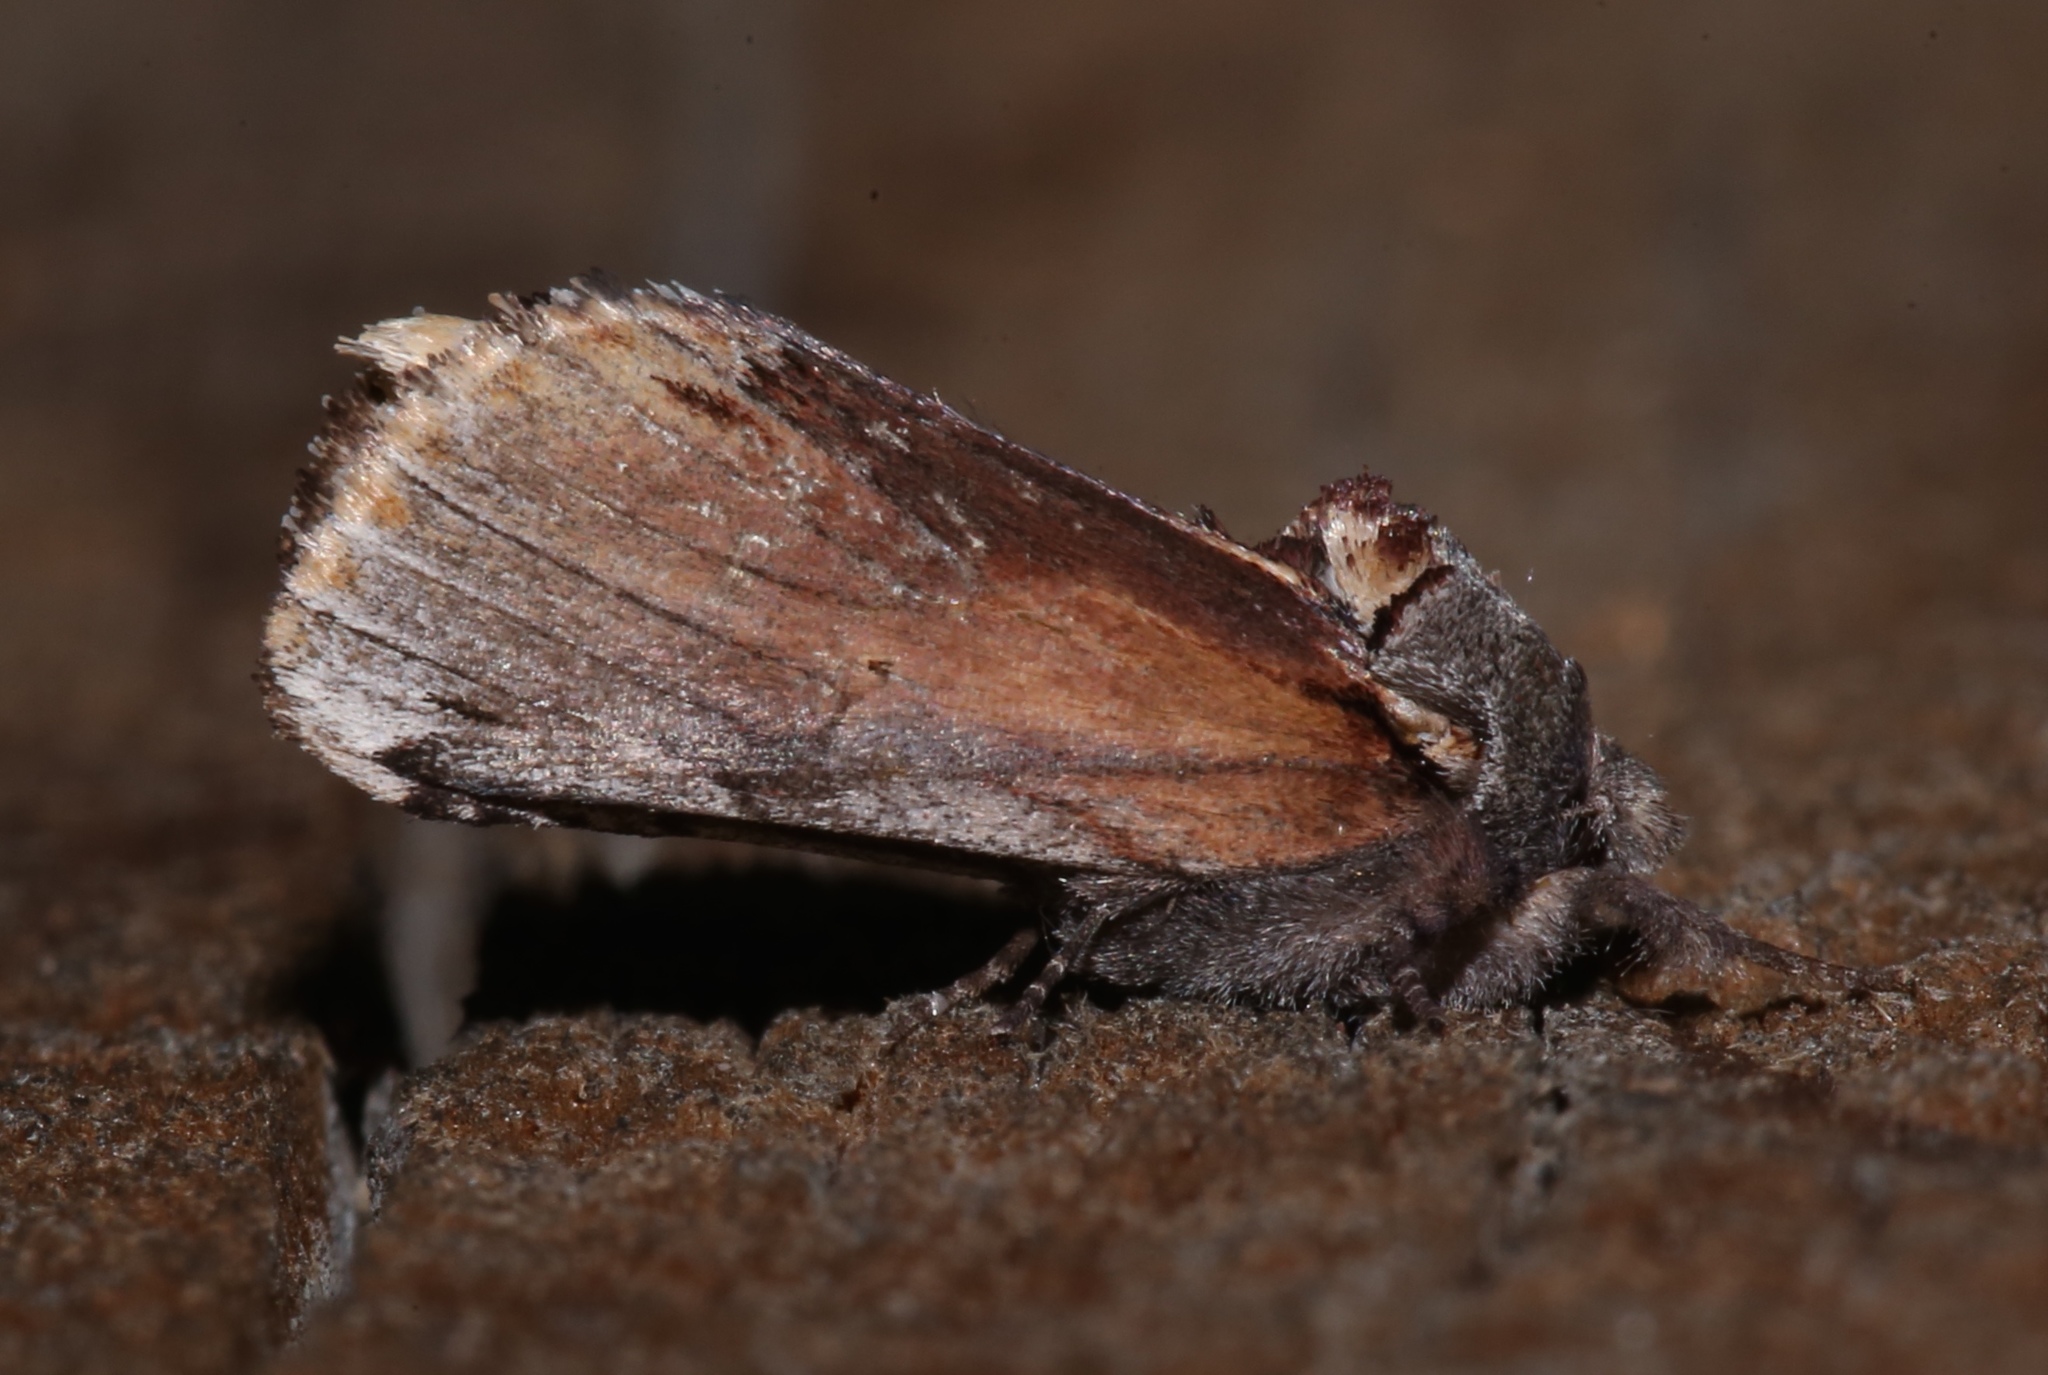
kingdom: Animalia
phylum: Arthropoda
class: Insecta
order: Lepidoptera
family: Notodontidae
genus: Schizura
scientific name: Schizura
